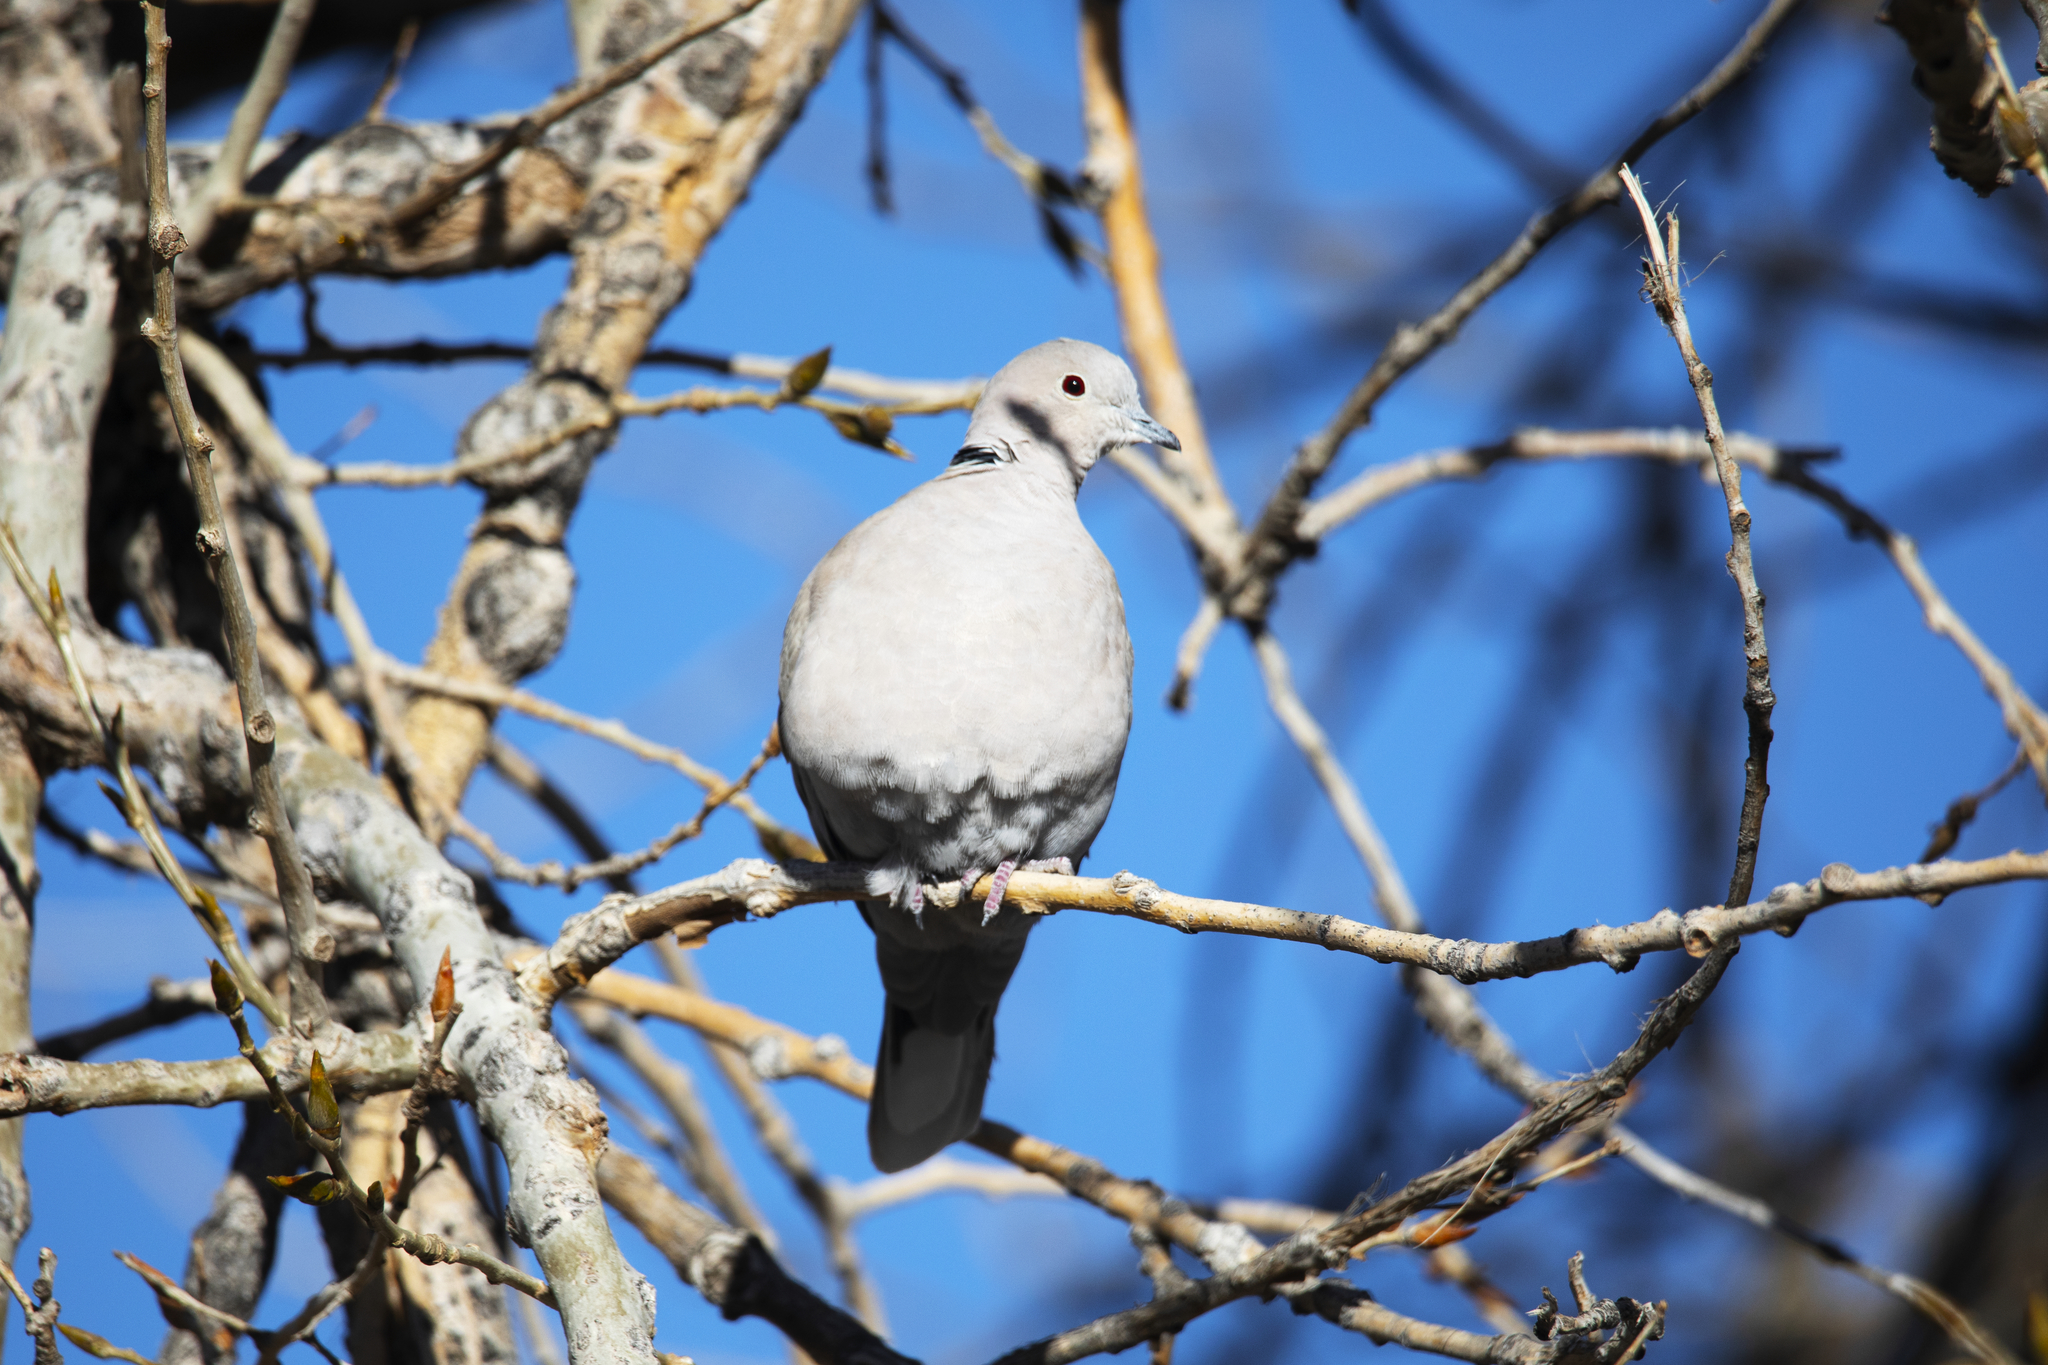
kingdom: Animalia
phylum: Chordata
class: Aves
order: Columbiformes
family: Columbidae
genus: Streptopelia
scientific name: Streptopelia decaocto
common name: Eurasian collared dove
